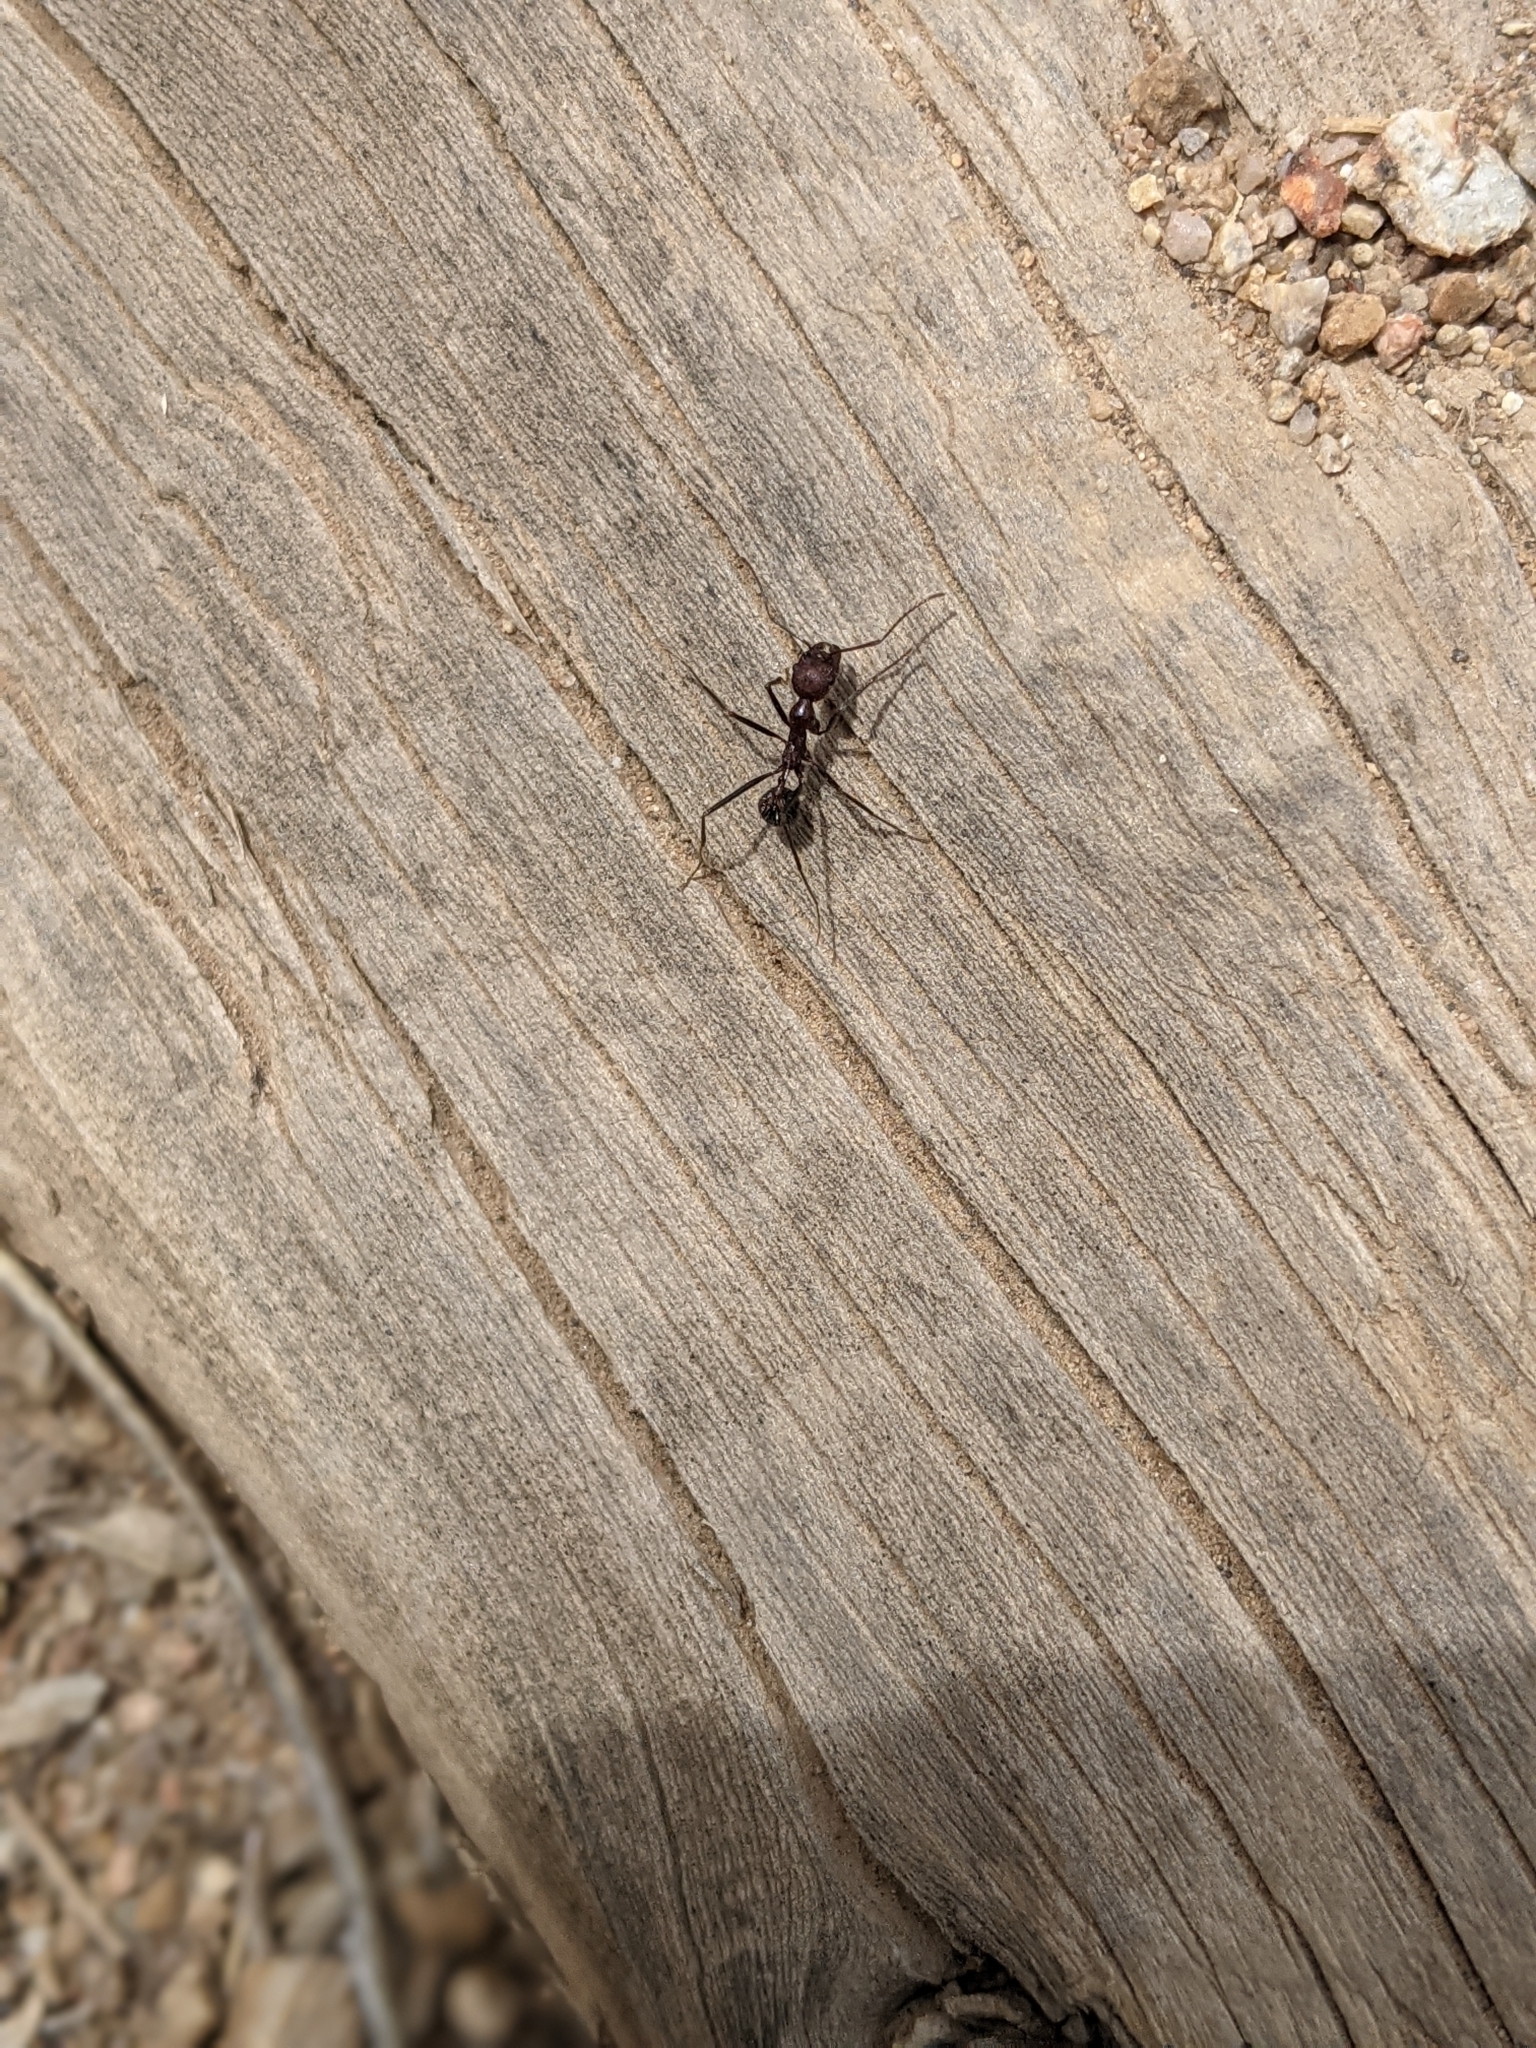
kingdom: Animalia
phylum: Arthropoda
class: Insecta
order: Hymenoptera
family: Formicidae
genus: Novomessor
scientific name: Novomessor albisetosa
